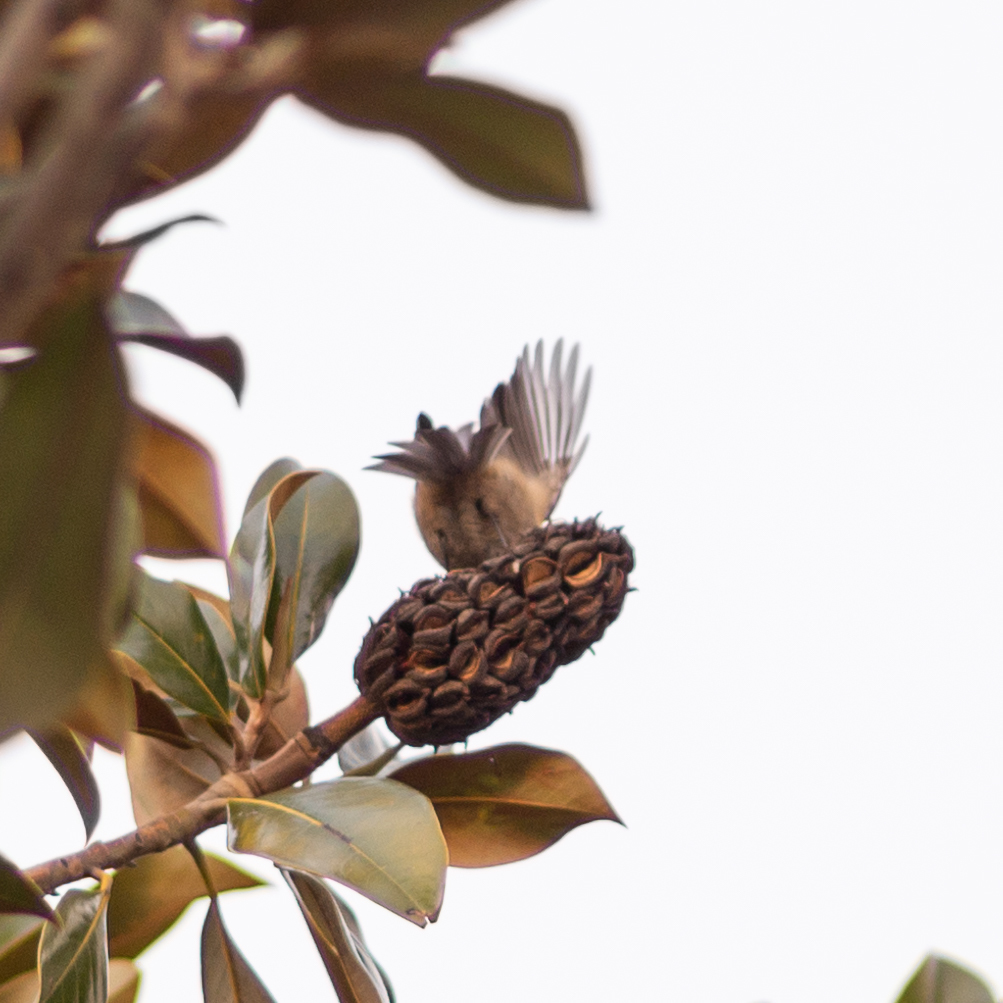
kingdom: Animalia
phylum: Chordata
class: Aves
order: Passeriformes
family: Paridae
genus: Periparus
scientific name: Periparus ater
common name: Coal tit
